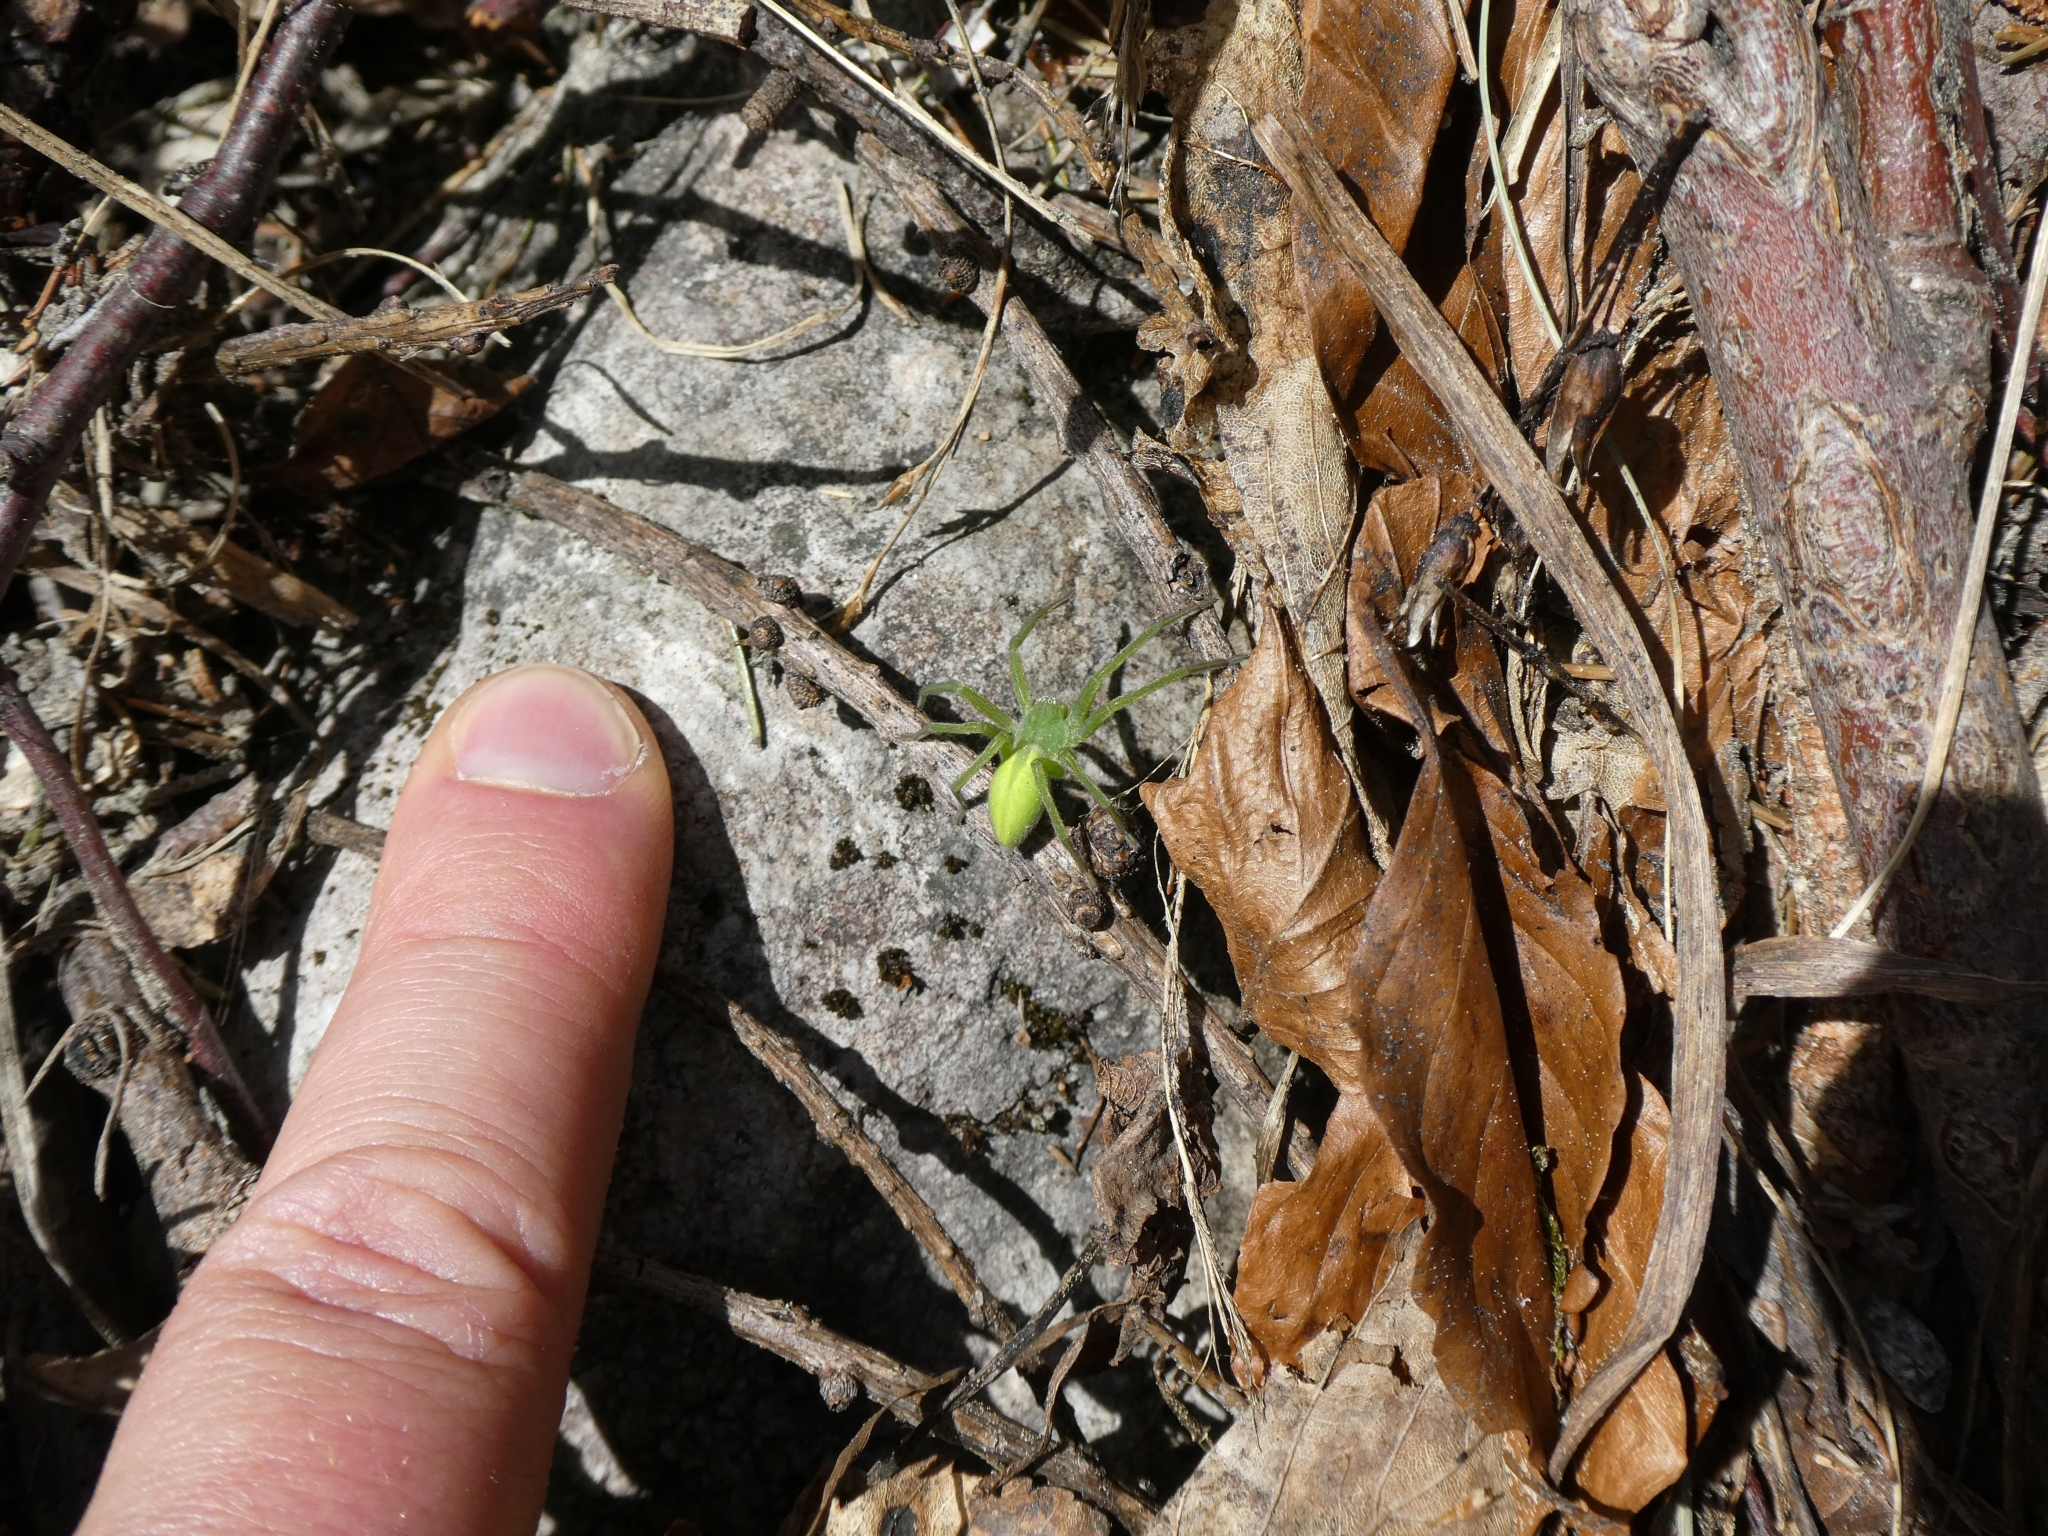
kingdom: Animalia
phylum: Arthropoda
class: Arachnida
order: Araneae
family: Sparassidae
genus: Micrommata
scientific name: Micrommata virescens
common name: Green spider
